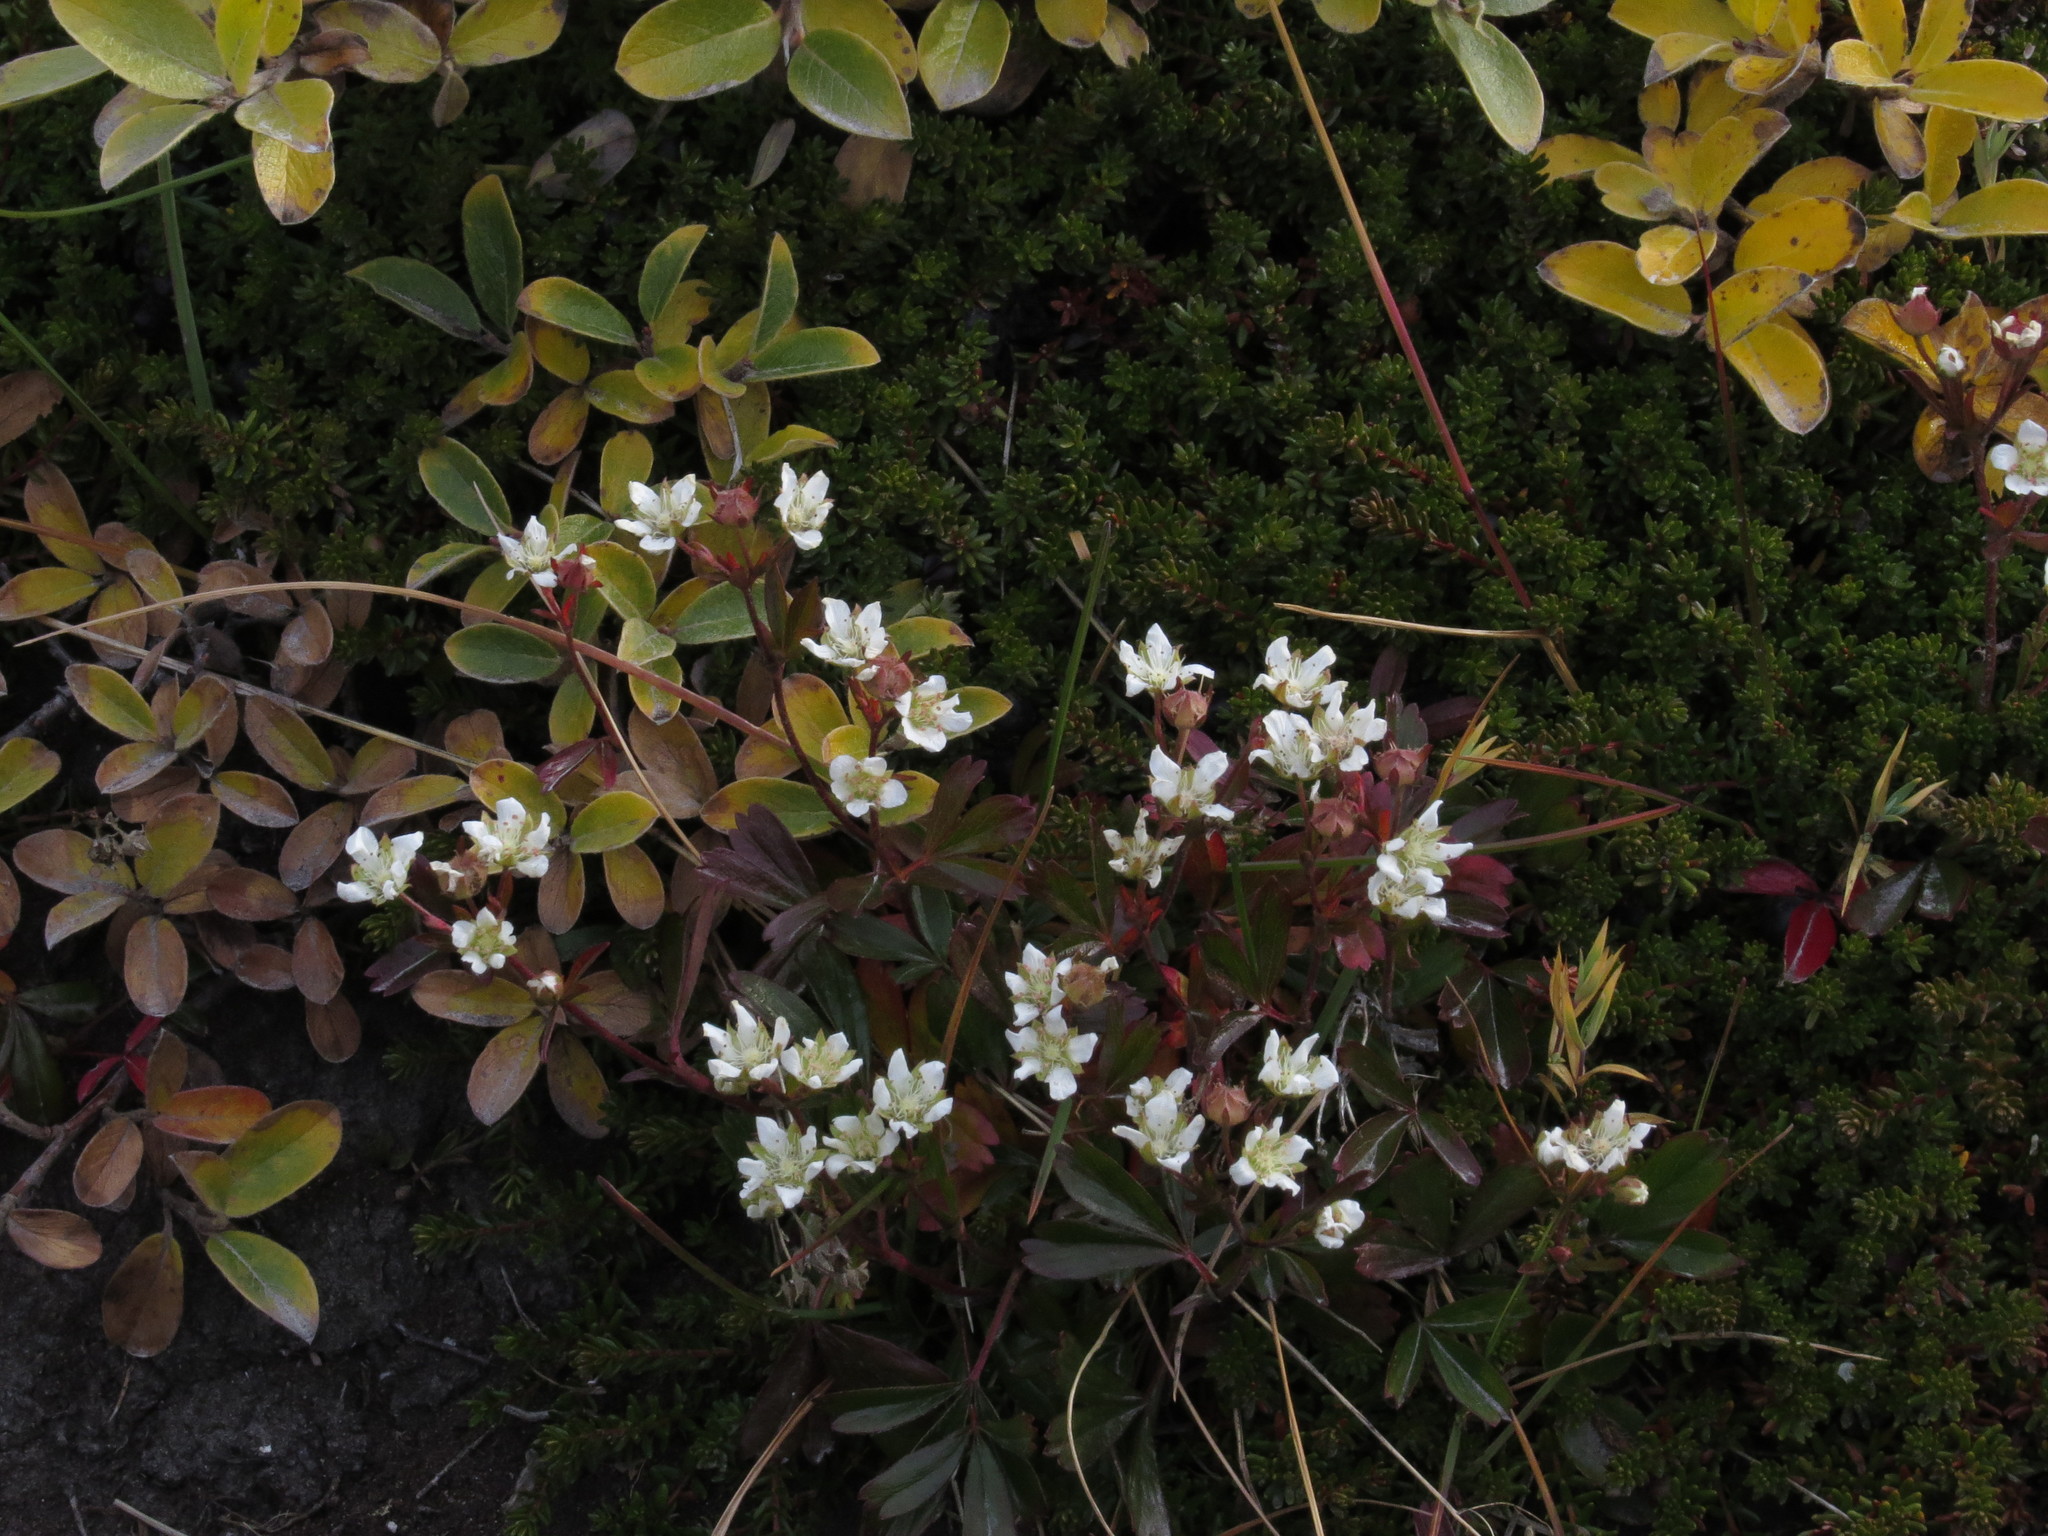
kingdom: Plantae
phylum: Tracheophyta
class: Magnoliopsida
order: Rosales
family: Rosaceae
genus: Sibbaldia
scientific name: Sibbaldia tridentata
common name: Three-toothed cinquefoil
